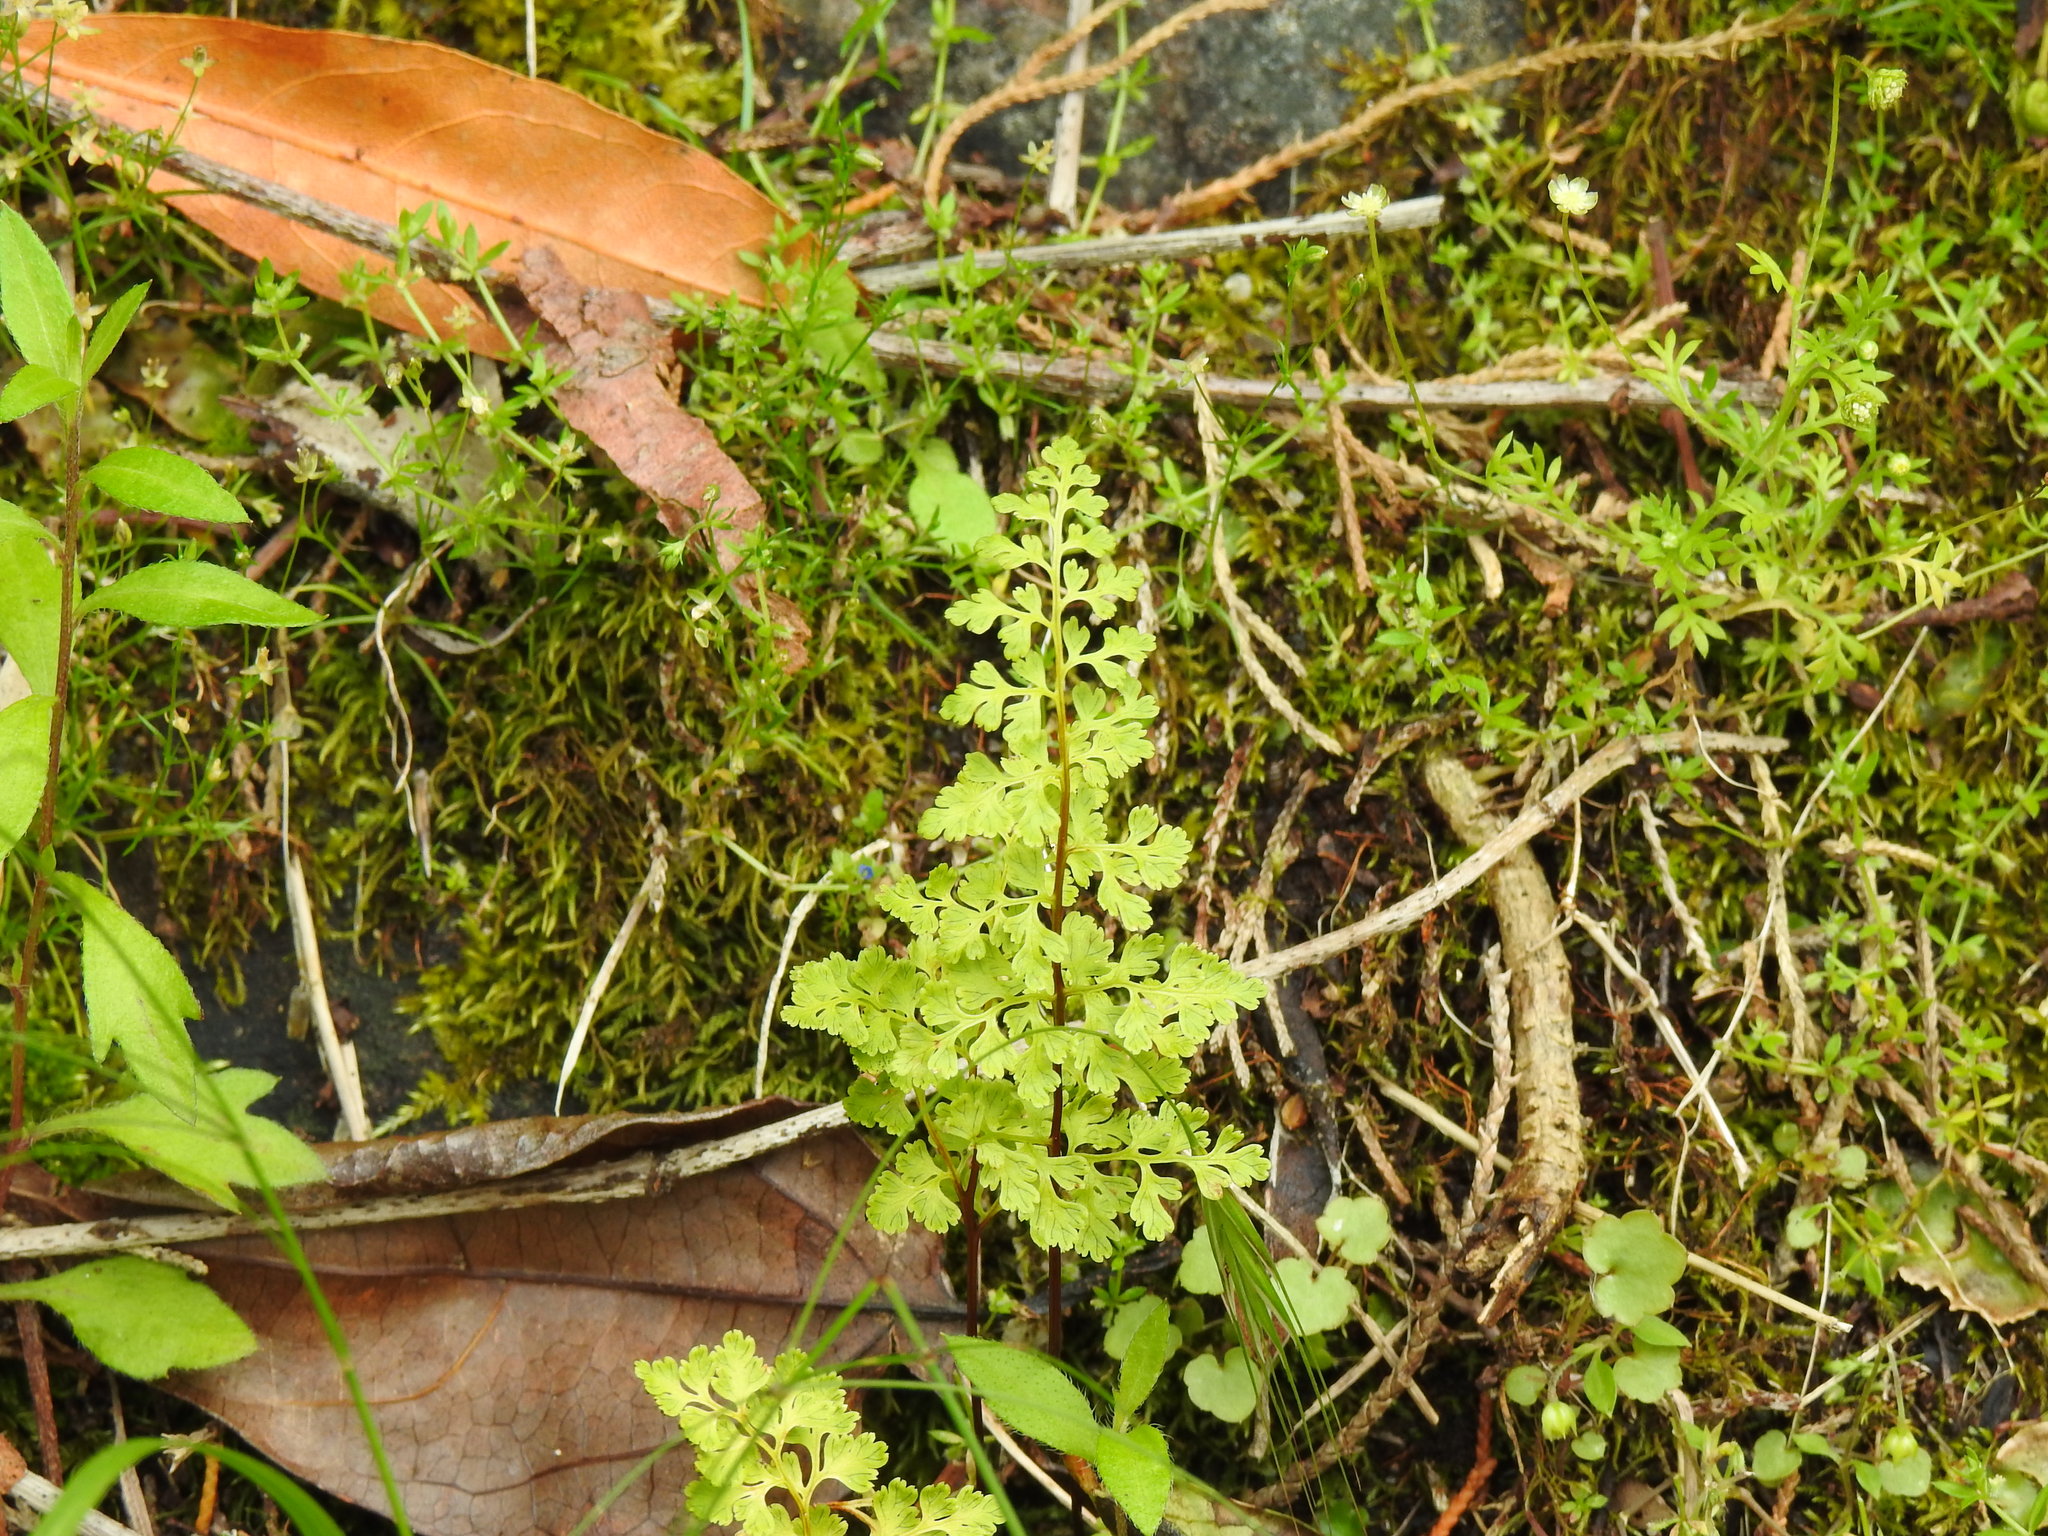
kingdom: Plantae
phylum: Tracheophyta
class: Polypodiopsida
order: Polypodiales
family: Pteridaceae
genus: Anogramma
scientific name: Anogramma leptophylla
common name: Jersey fern
